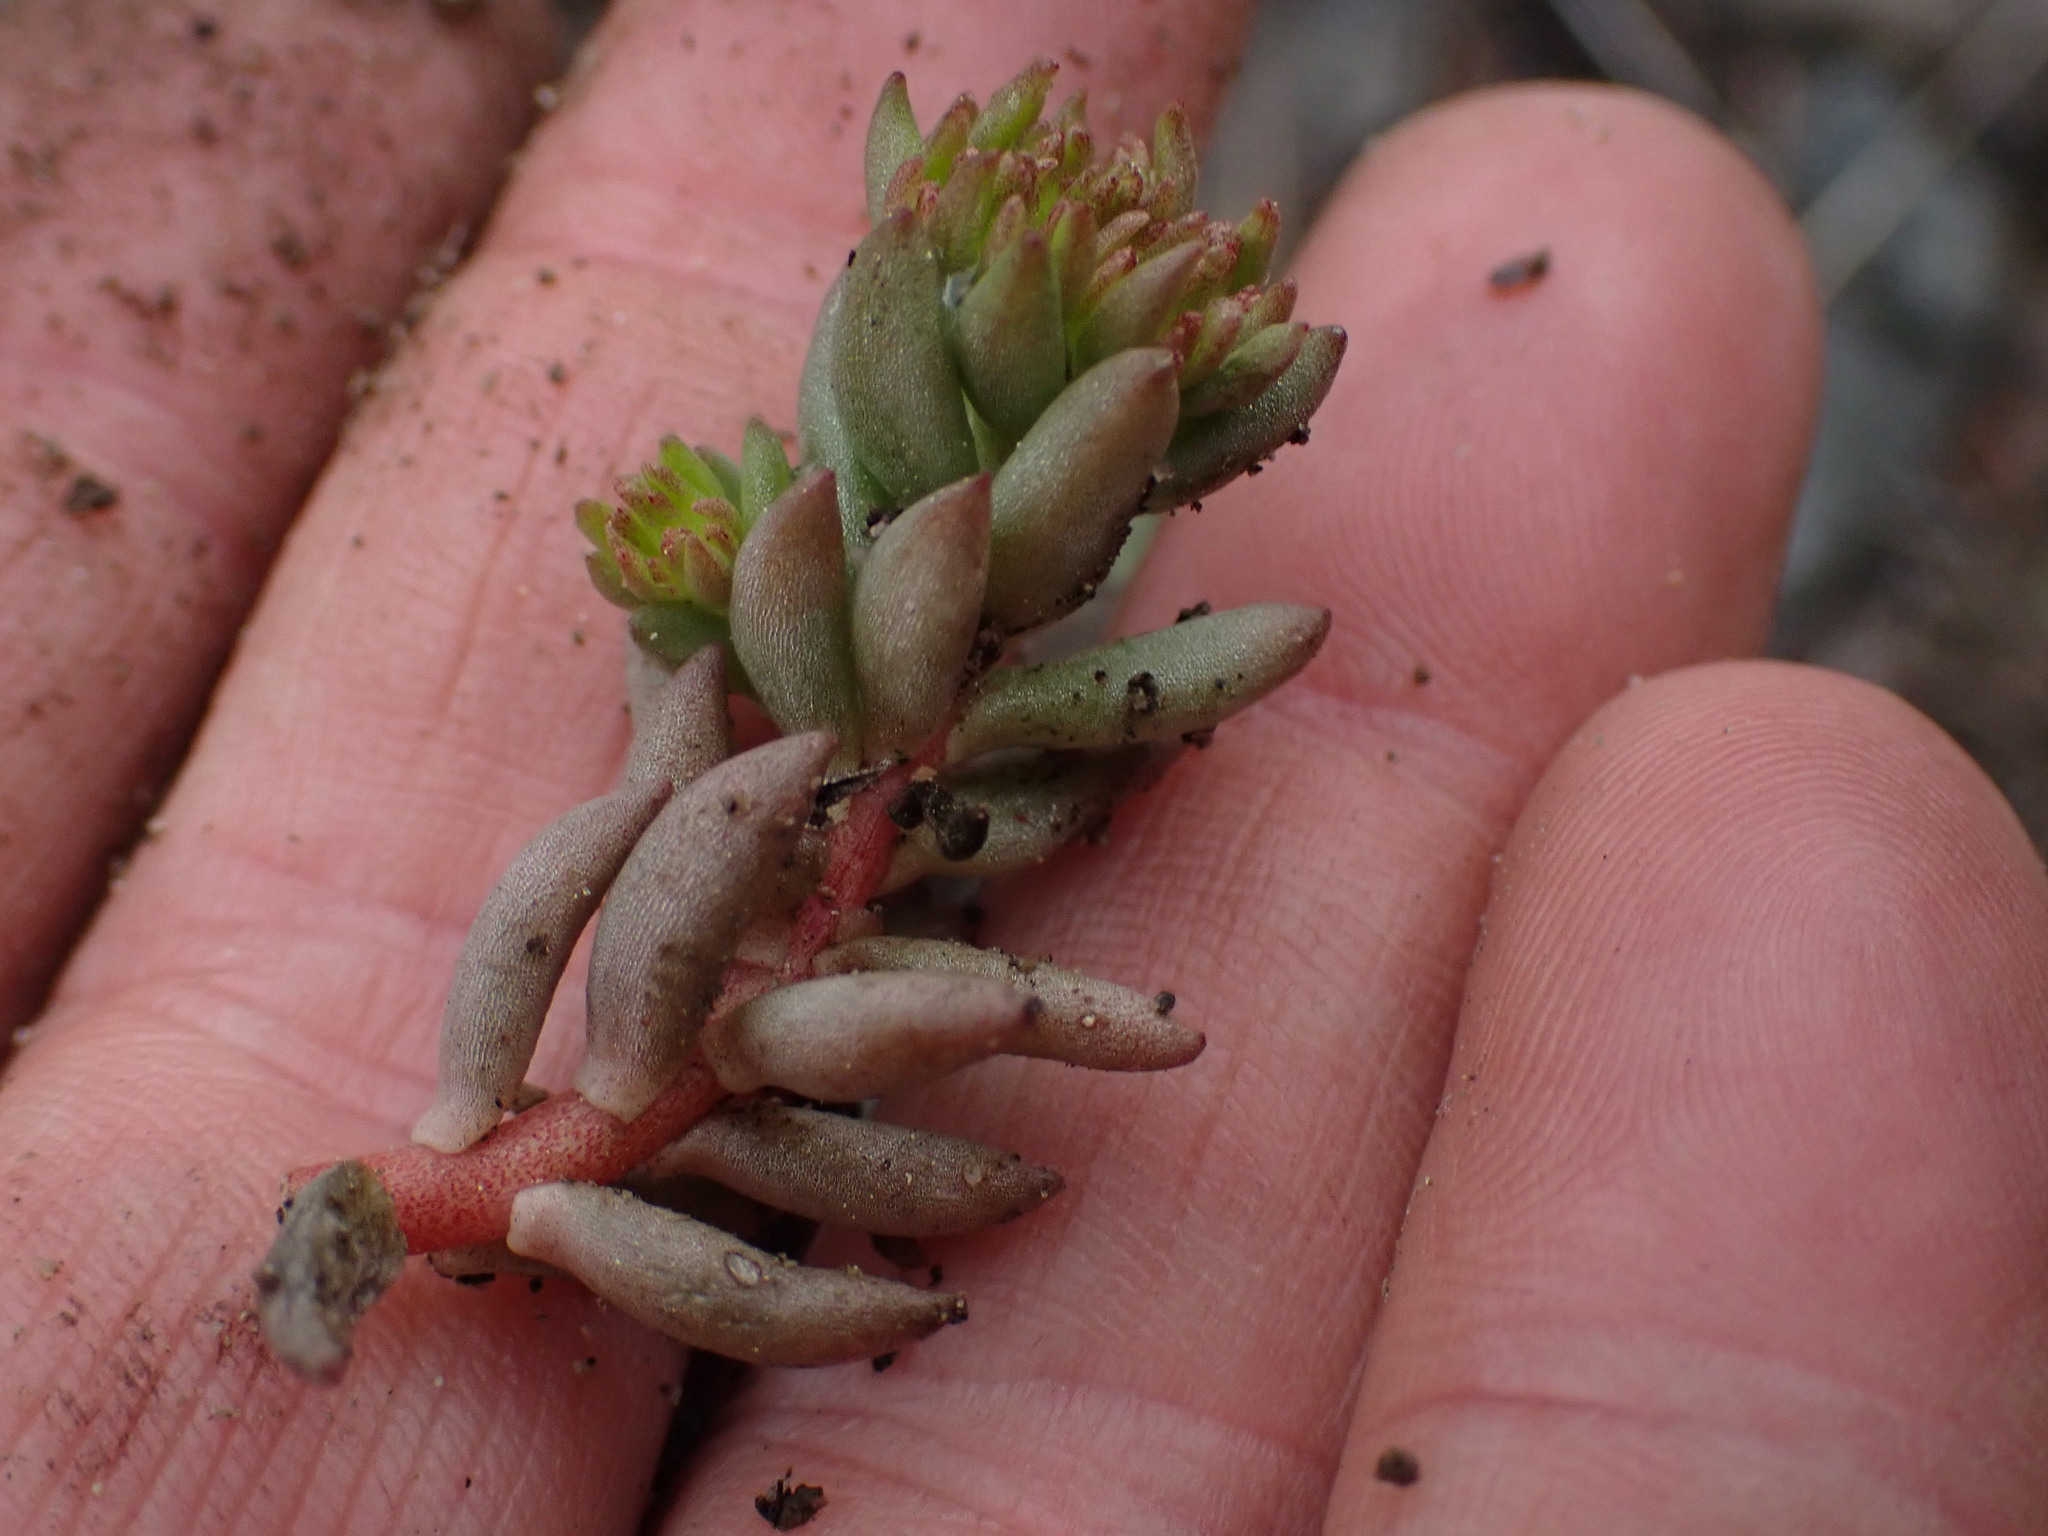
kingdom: Plantae
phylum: Tracheophyta
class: Magnoliopsida
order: Saxifragales
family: Crassulaceae
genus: Sedum
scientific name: Sedum lanceolatum
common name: Common stonecrop
